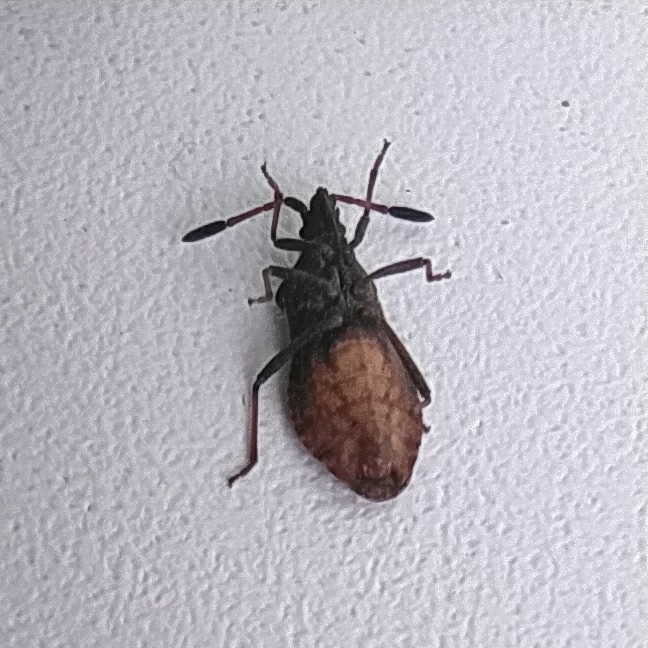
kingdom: Animalia
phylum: Arthropoda
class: Insecta
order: Hemiptera
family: Coreidae
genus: Ulmicola
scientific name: Ulmicola spinipes
